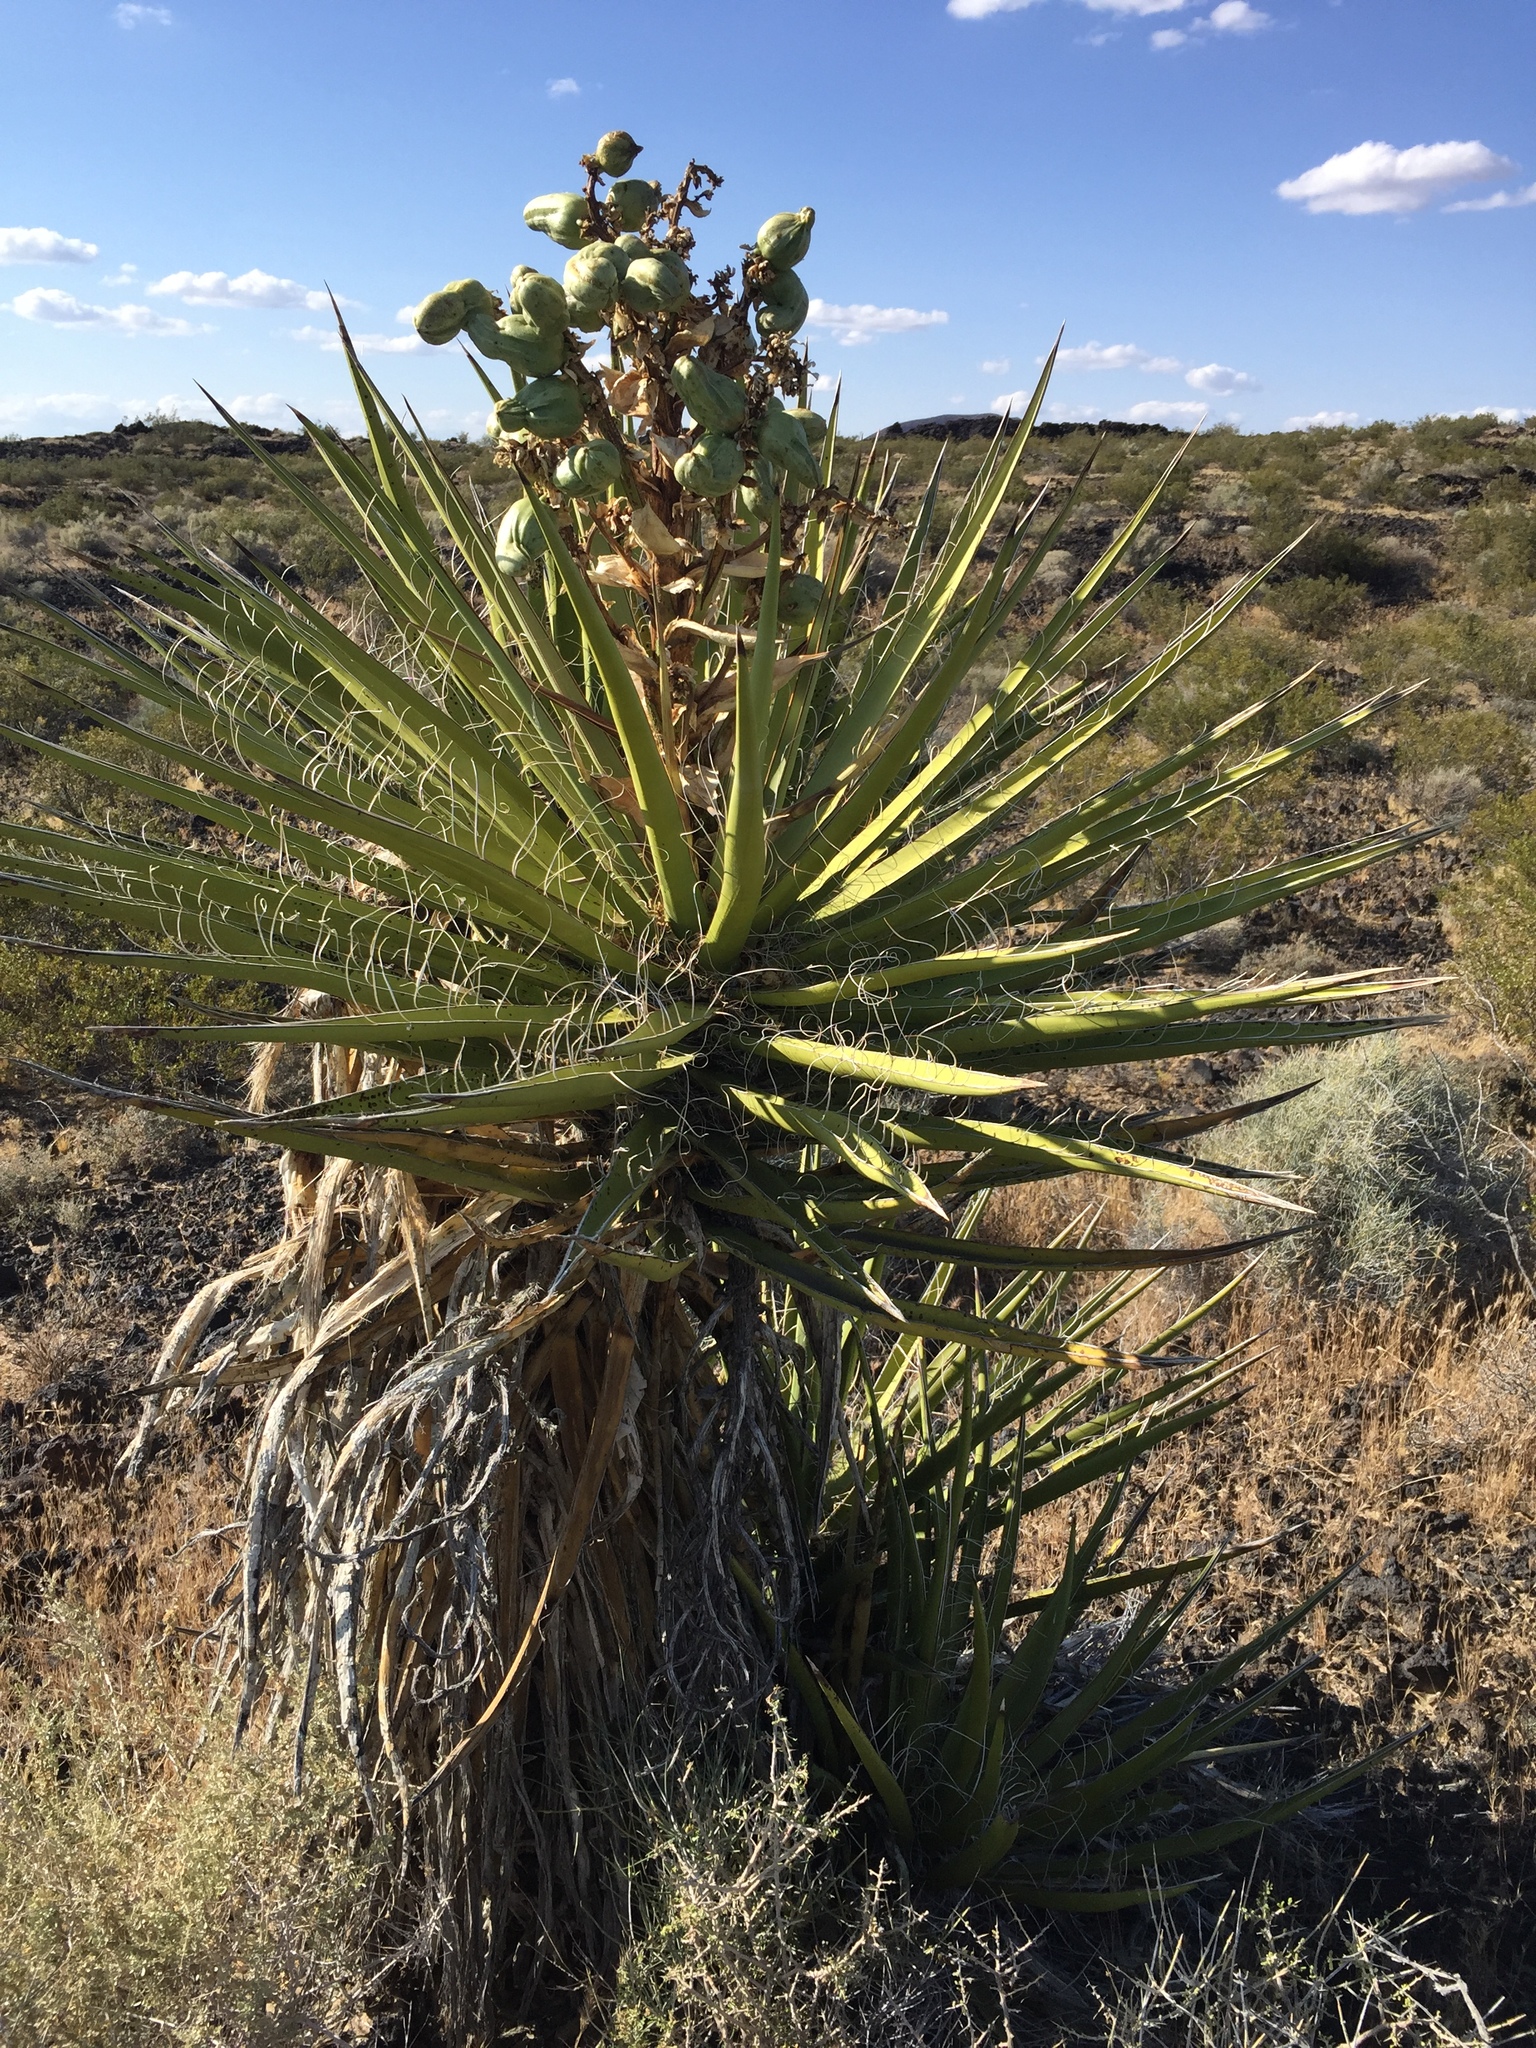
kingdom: Plantae
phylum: Tracheophyta
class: Liliopsida
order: Asparagales
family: Asparagaceae
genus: Yucca
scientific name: Yucca schidigera
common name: Mojave yucca
